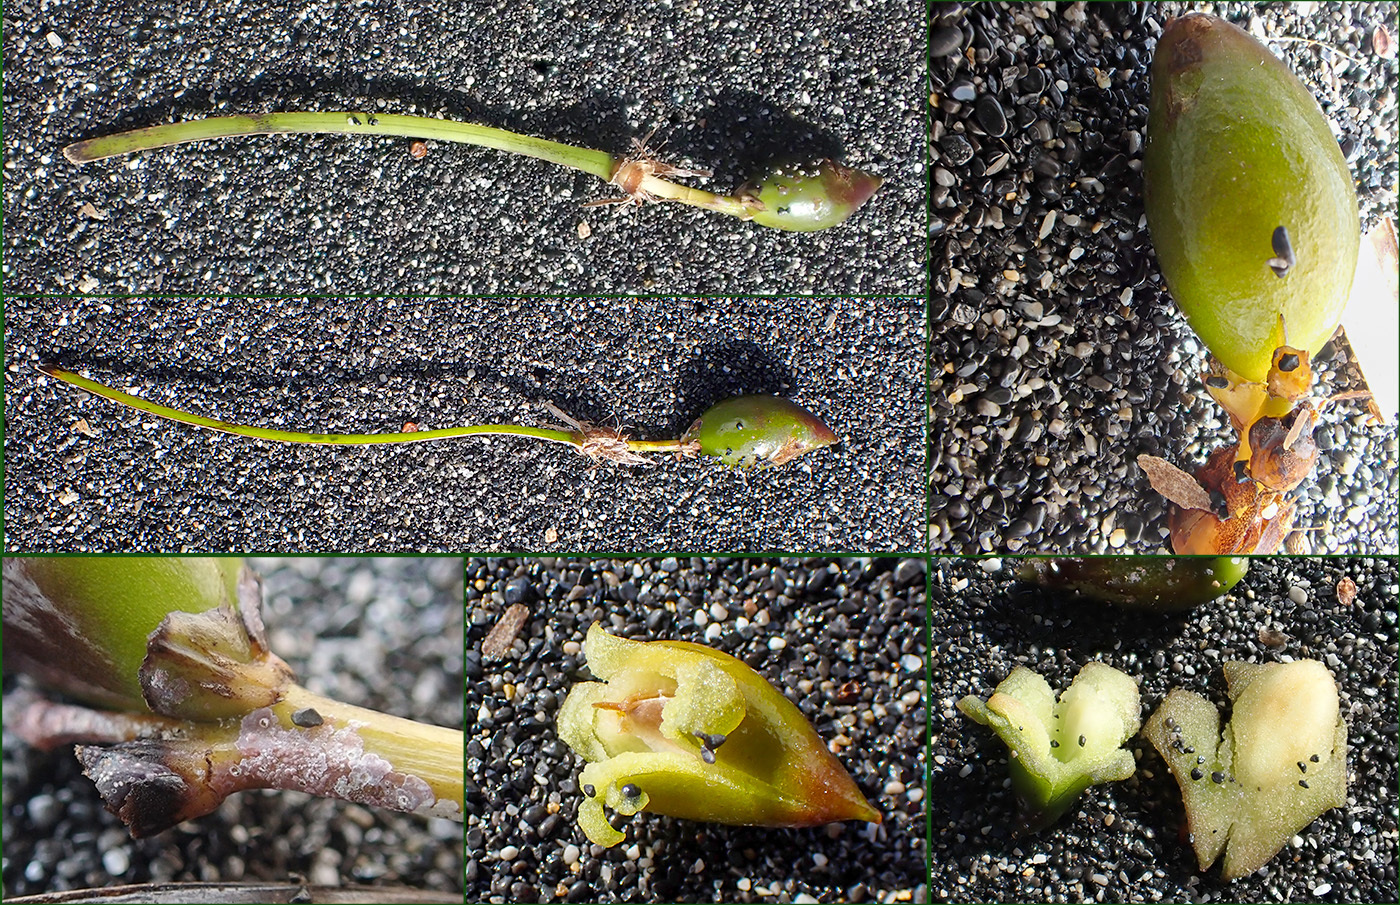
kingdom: Plantae
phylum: Tracheophyta
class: Liliopsida
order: Alismatales
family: Posidoniaceae
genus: Posidonia
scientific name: Posidonia oceanica
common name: Mediterranean tapeweed
